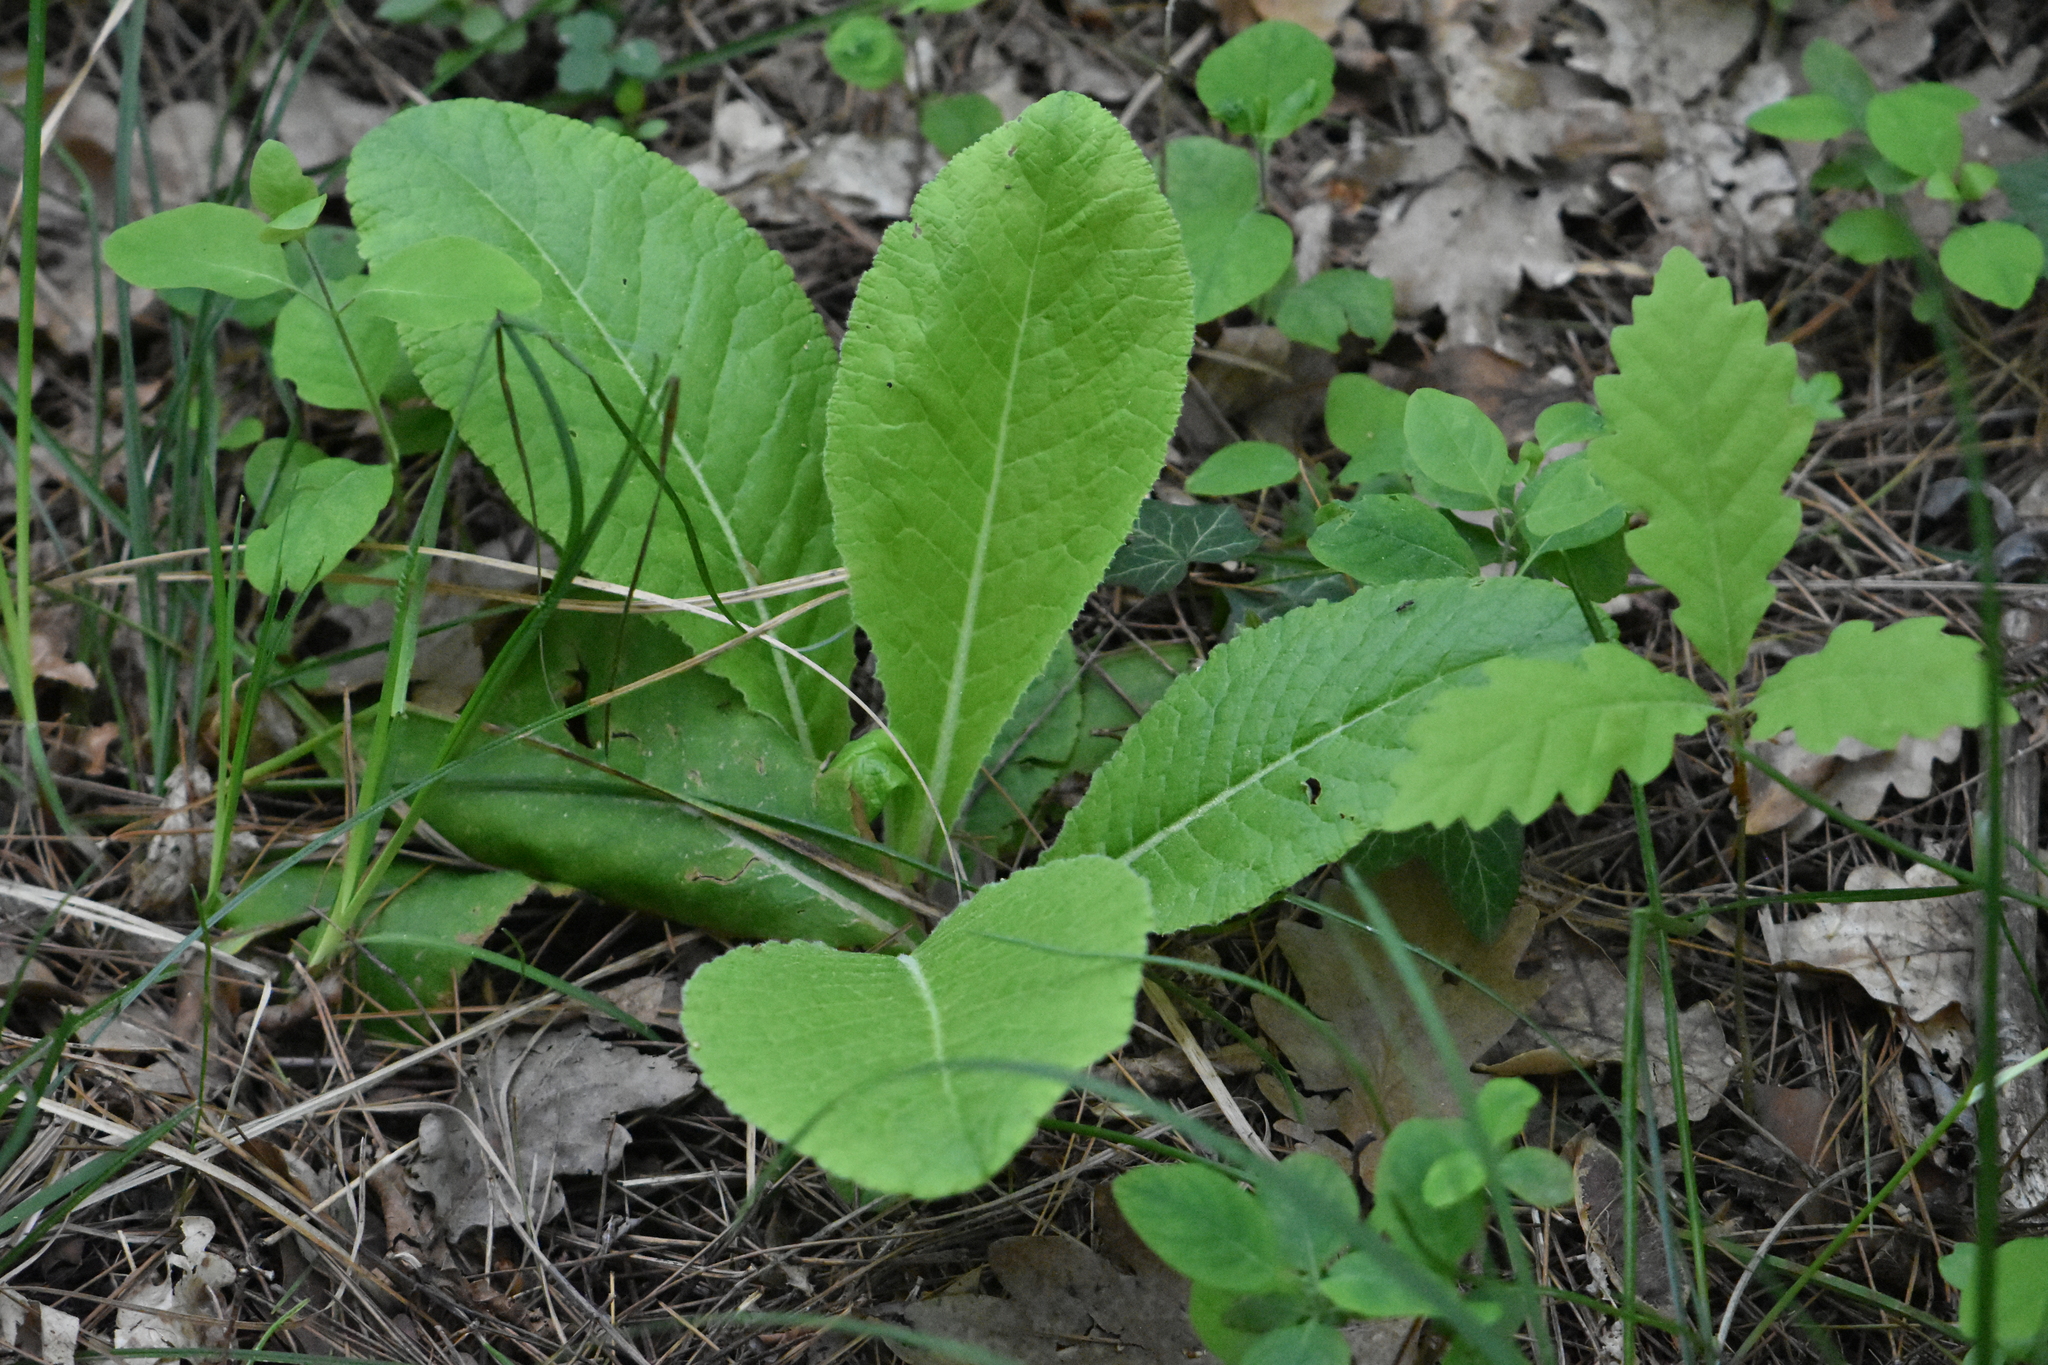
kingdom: Plantae
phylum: Tracheophyta
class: Magnoliopsida
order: Ericales
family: Primulaceae
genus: Primula
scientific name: Primula vulgaris
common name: Primrose
